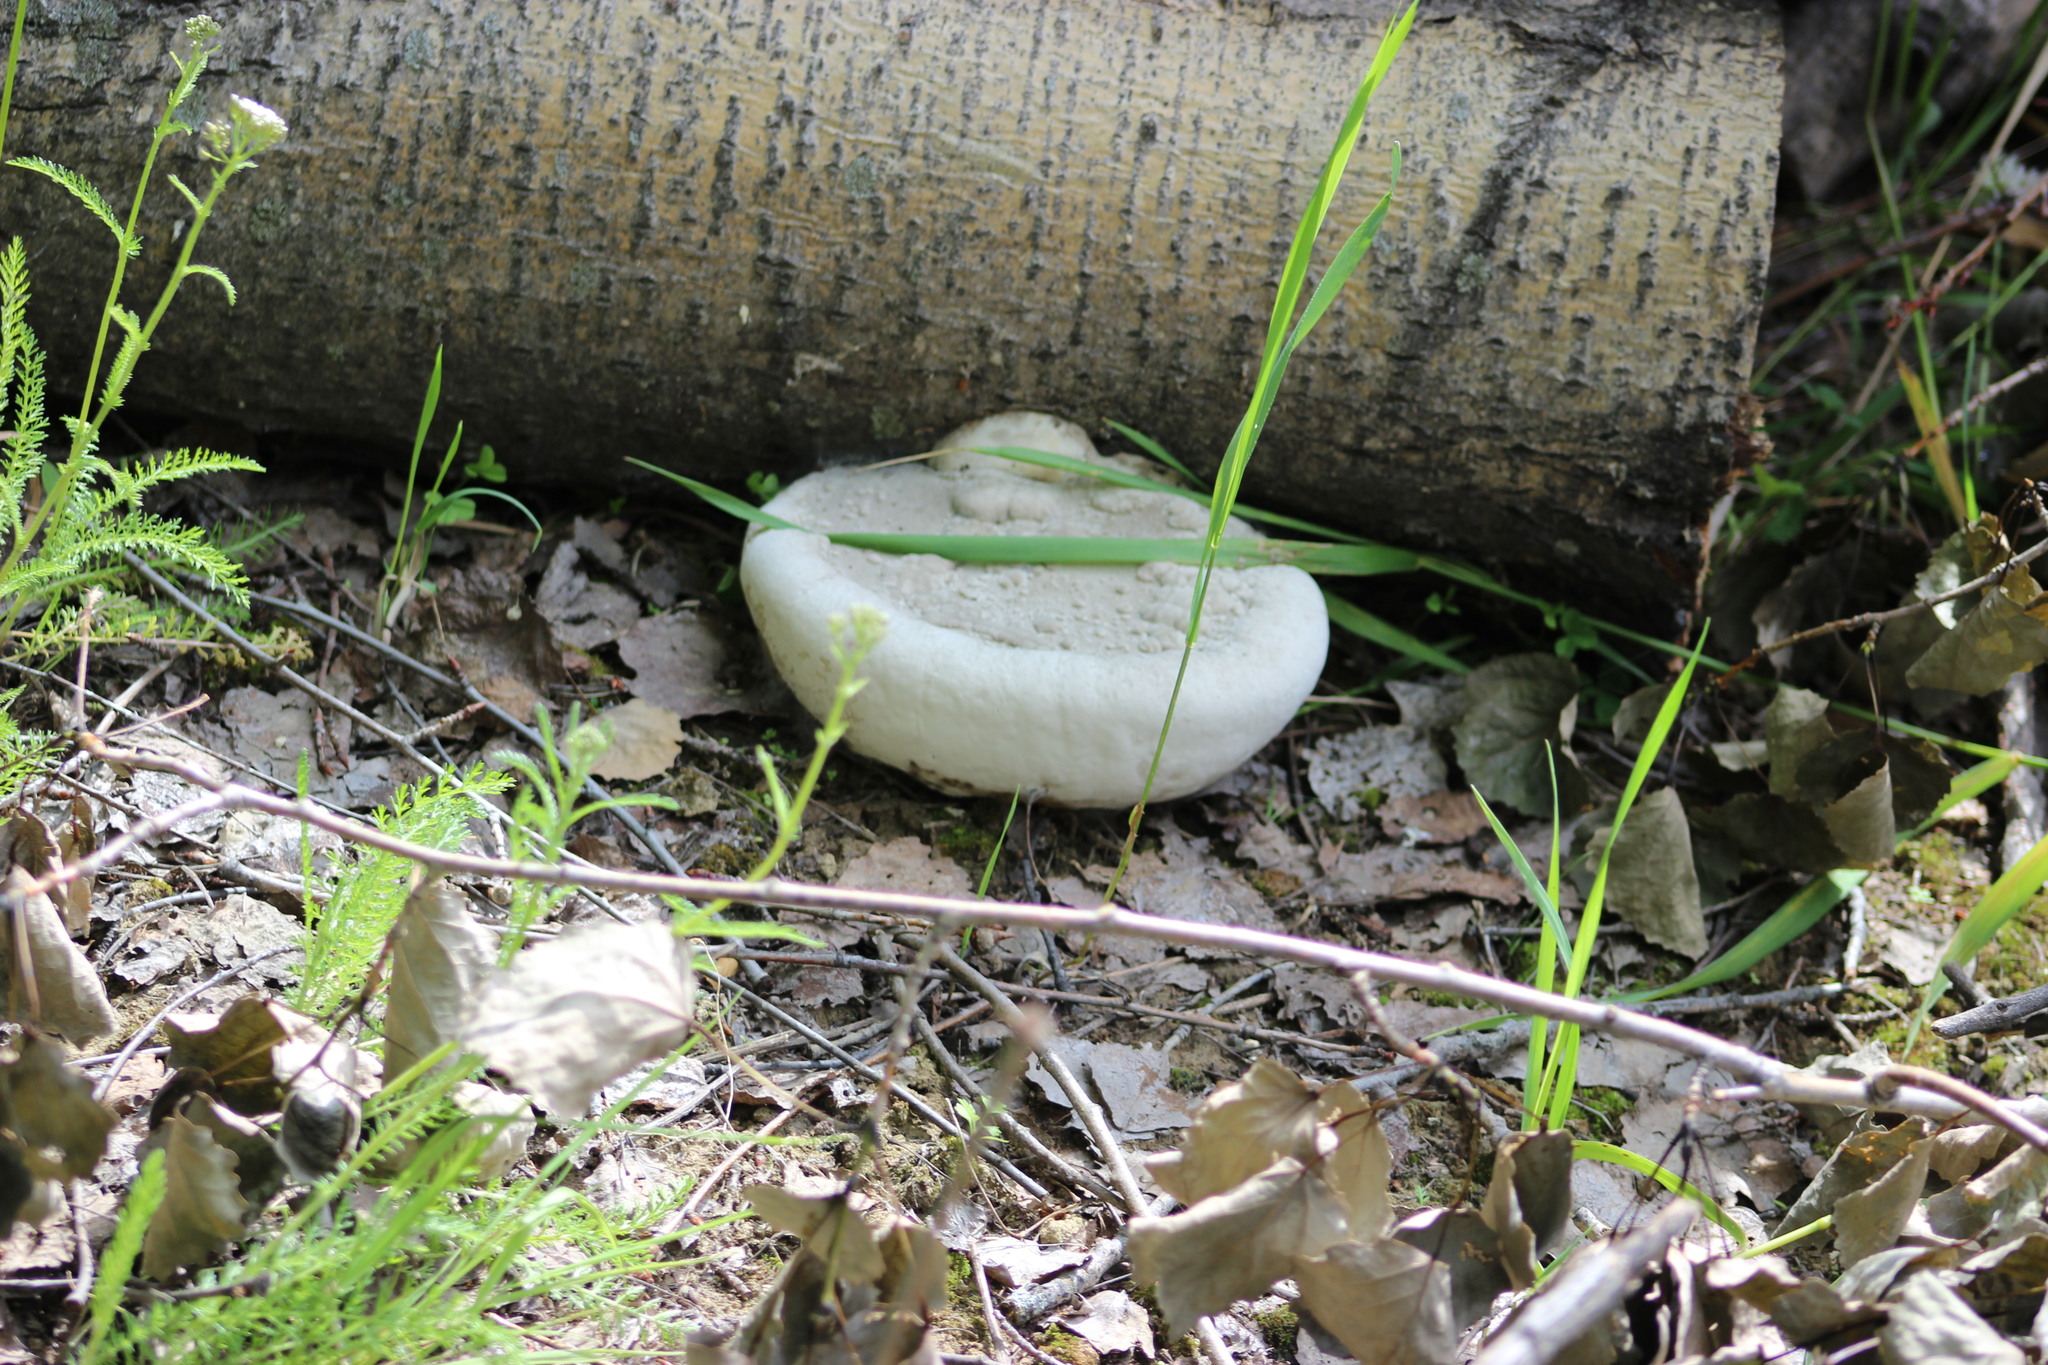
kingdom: Fungi
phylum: Basidiomycota
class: Agaricomycetes
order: Polyporales
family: Polyporaceae
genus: Fomes
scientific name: Fomes fomentarius
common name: Hoof fungus
